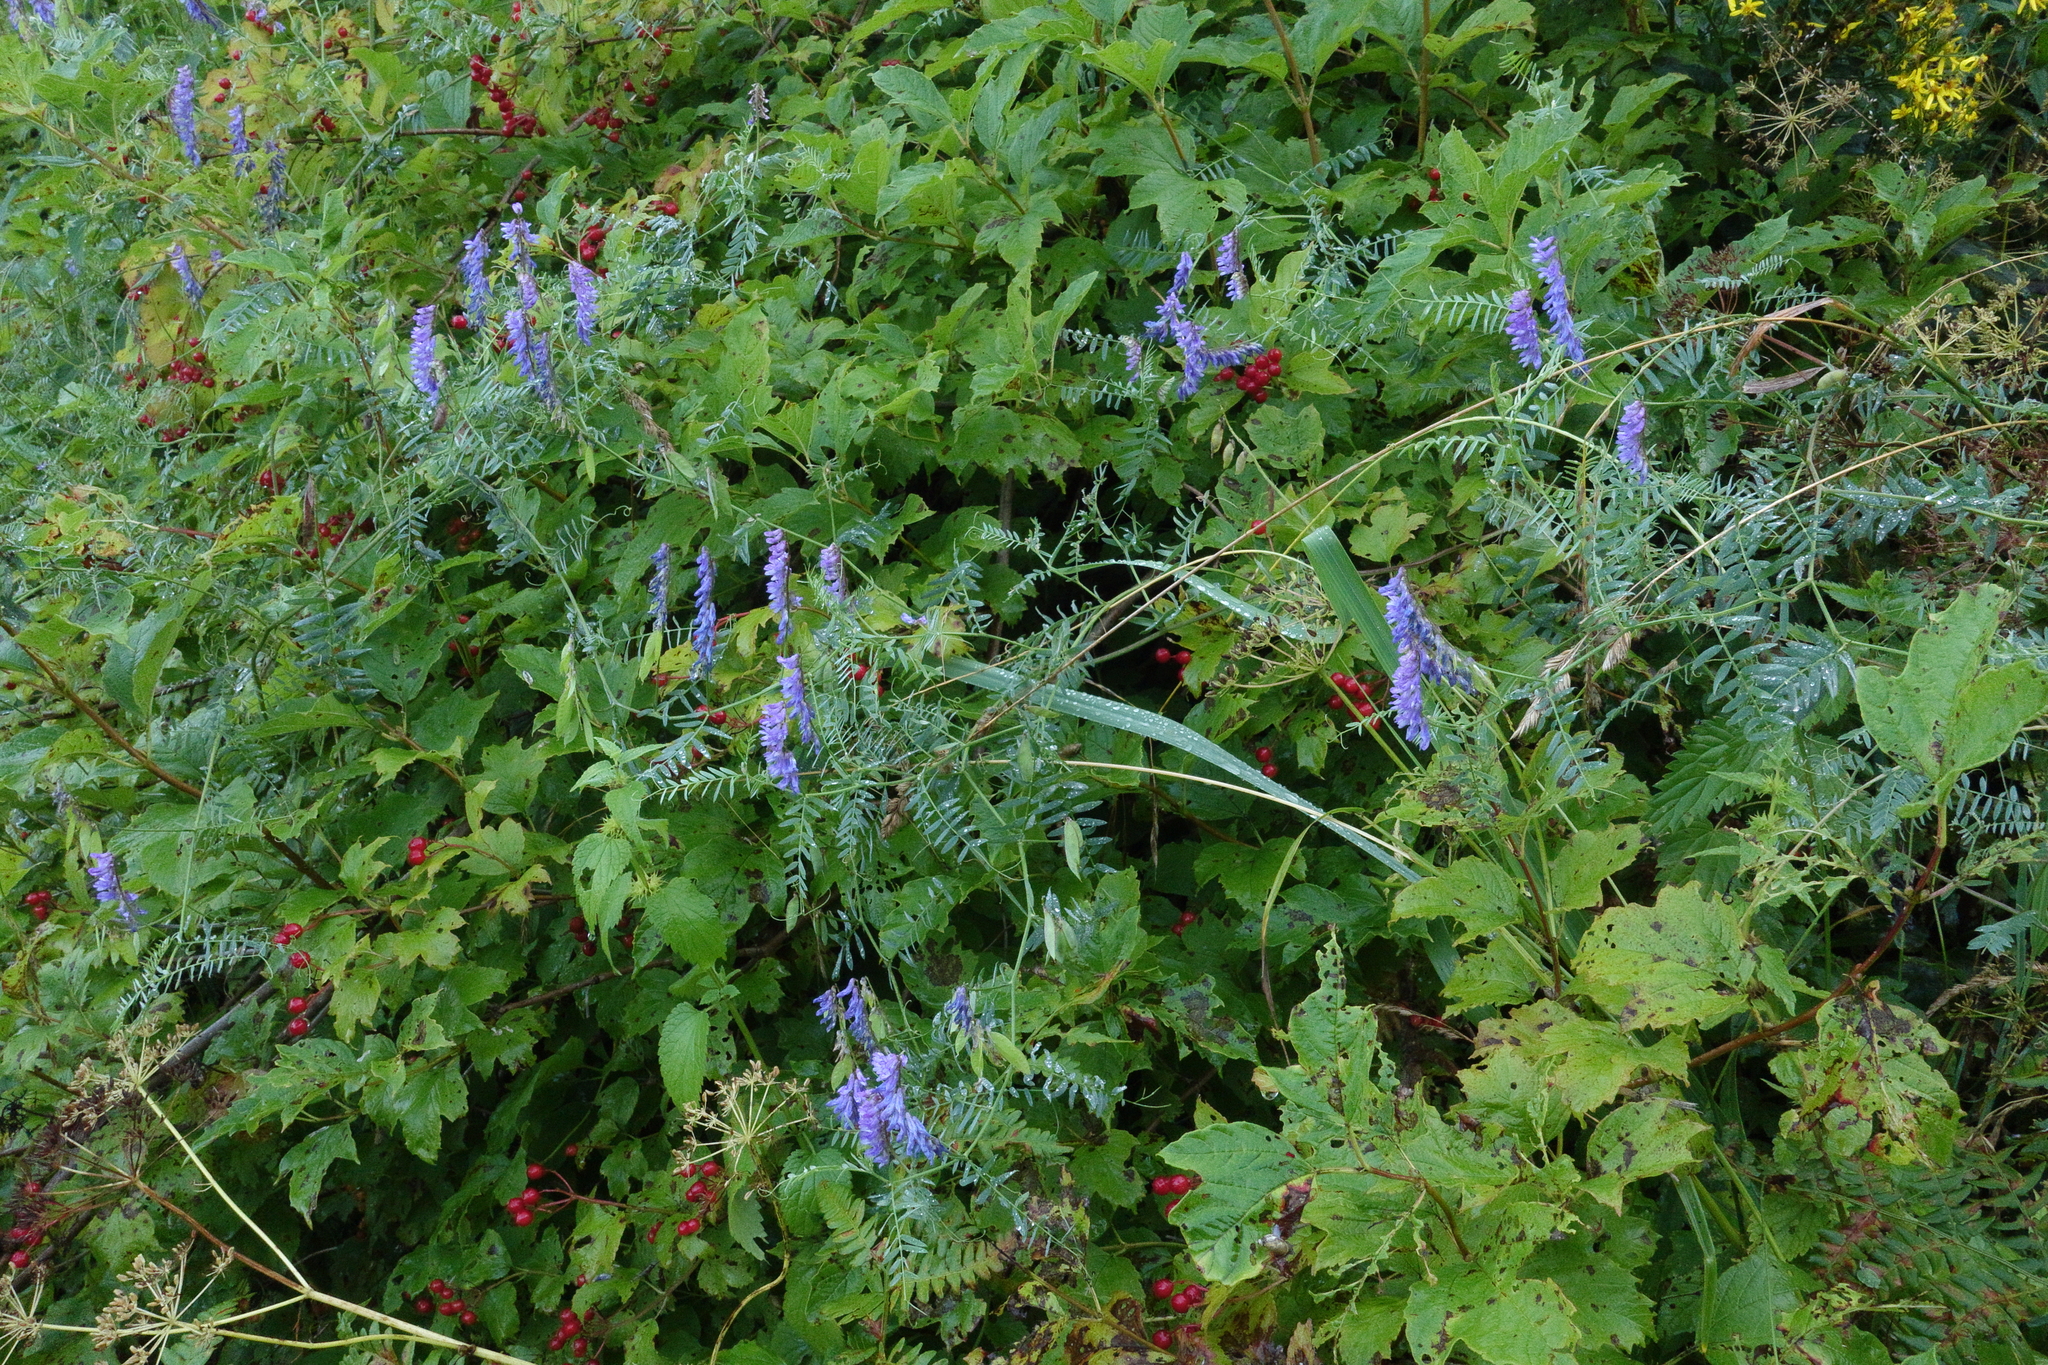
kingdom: Plantae
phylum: Tracheophyta
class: Magnoliopsida
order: Fabales
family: Fabaceae
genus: Vicia
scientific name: Vicia cracca
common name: Bird vetch
